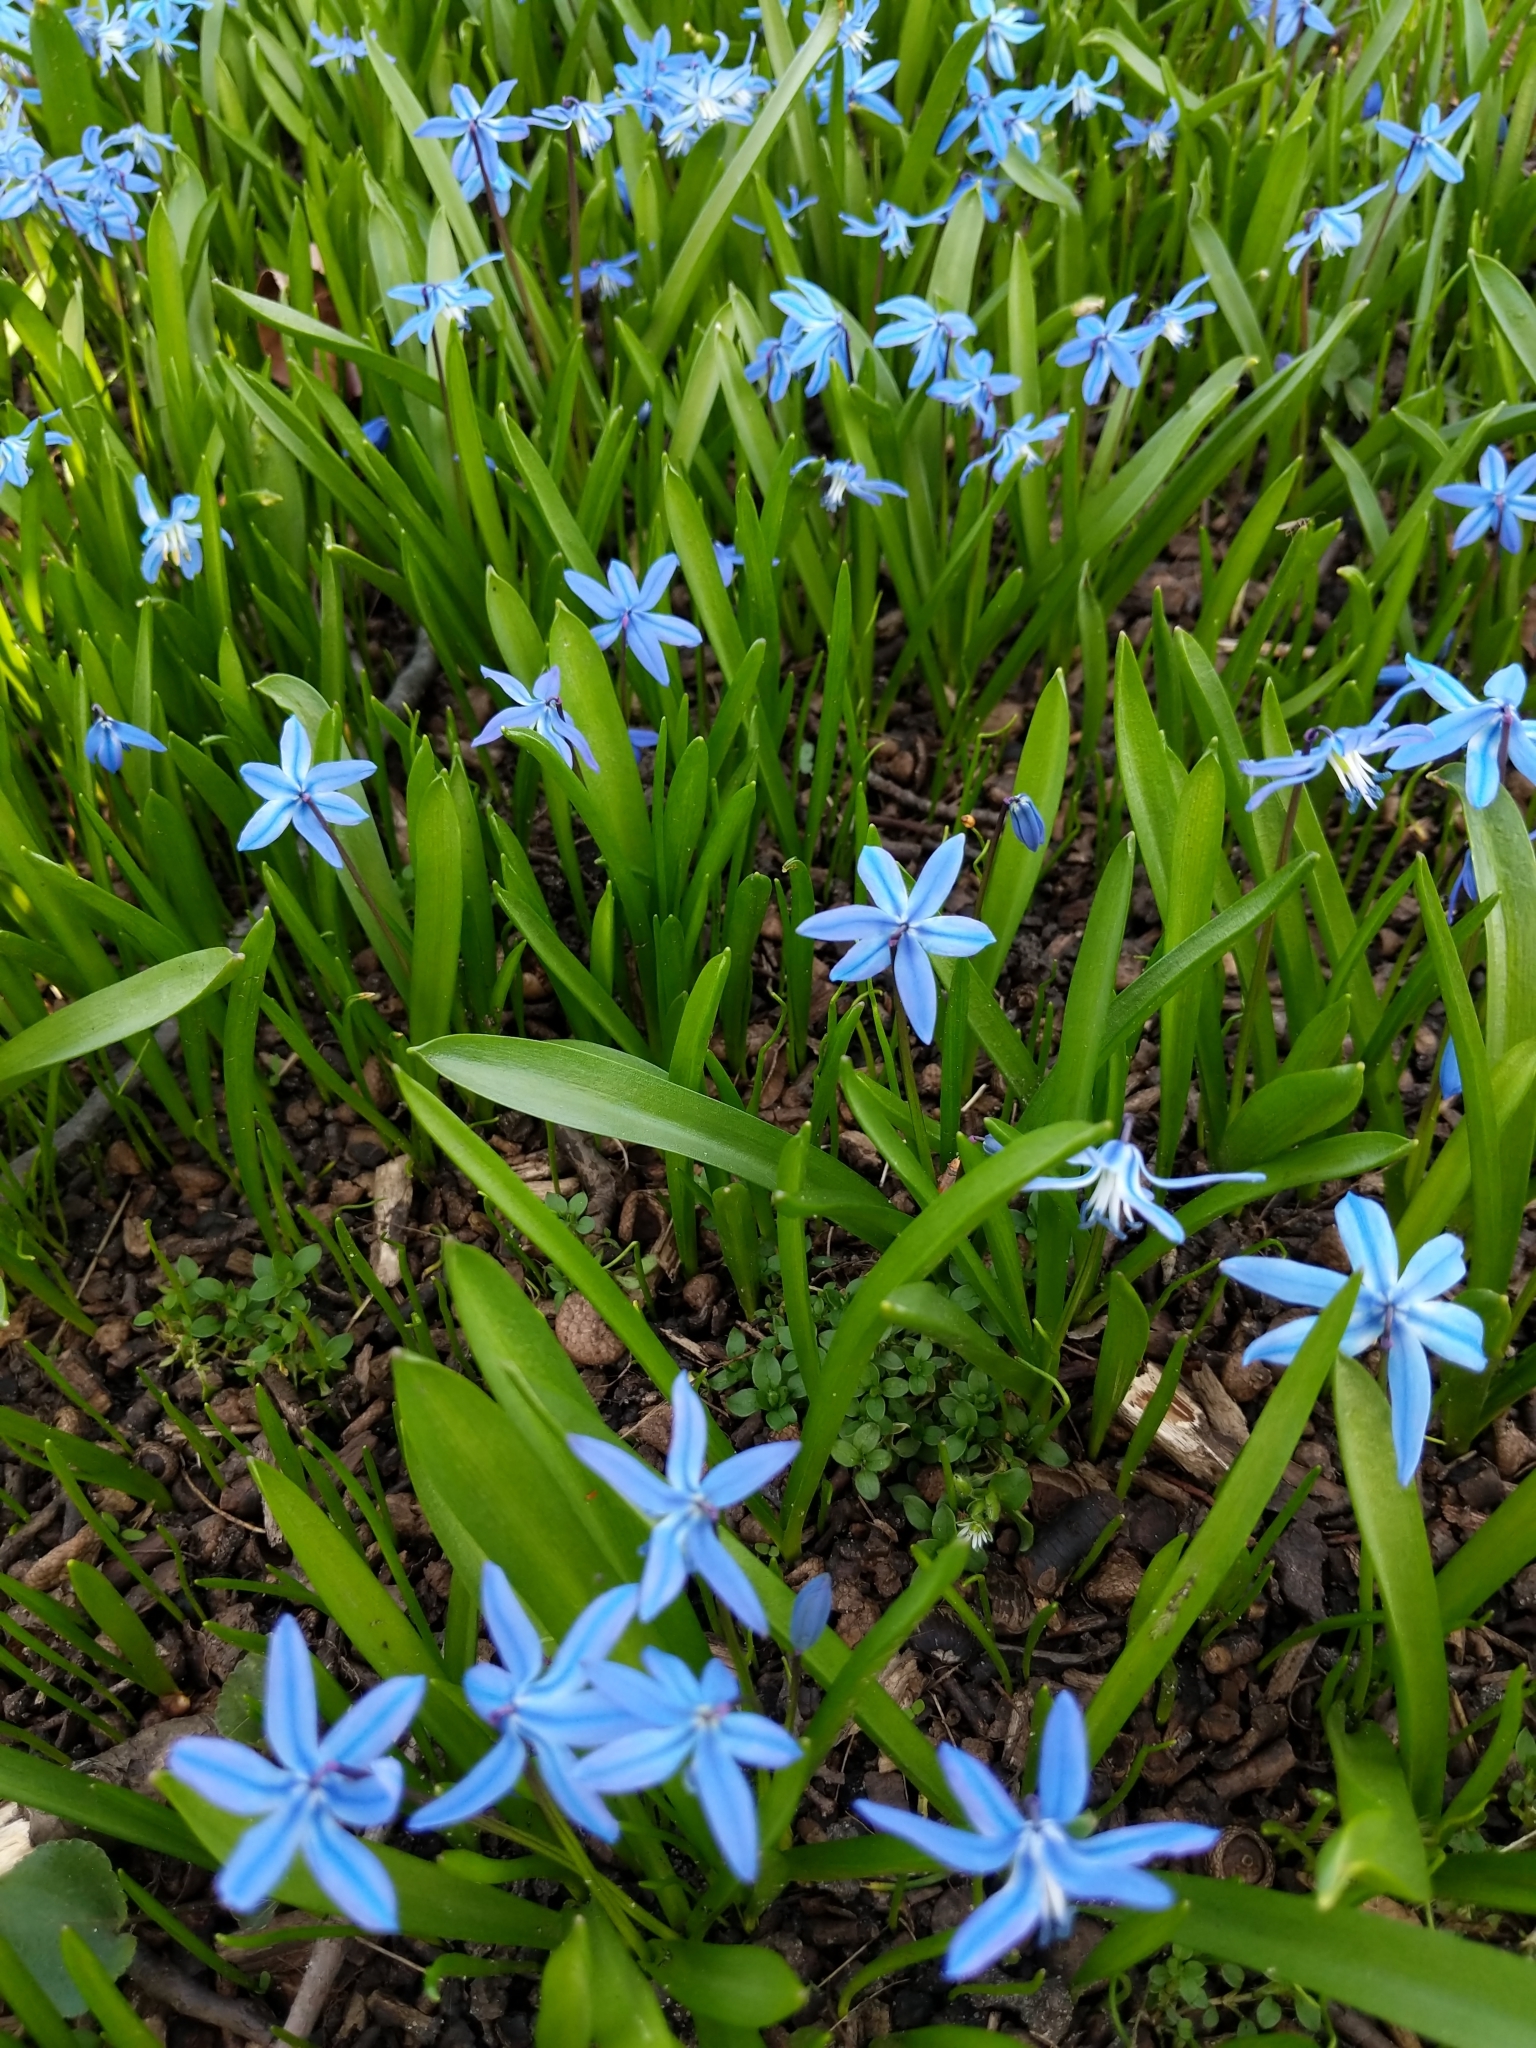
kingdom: Plantae
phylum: Tracheophyta
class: Liliopsida
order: Asparagales
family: Asparagaceae
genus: Scilla
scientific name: Scilla siberica
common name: Siberian squill
